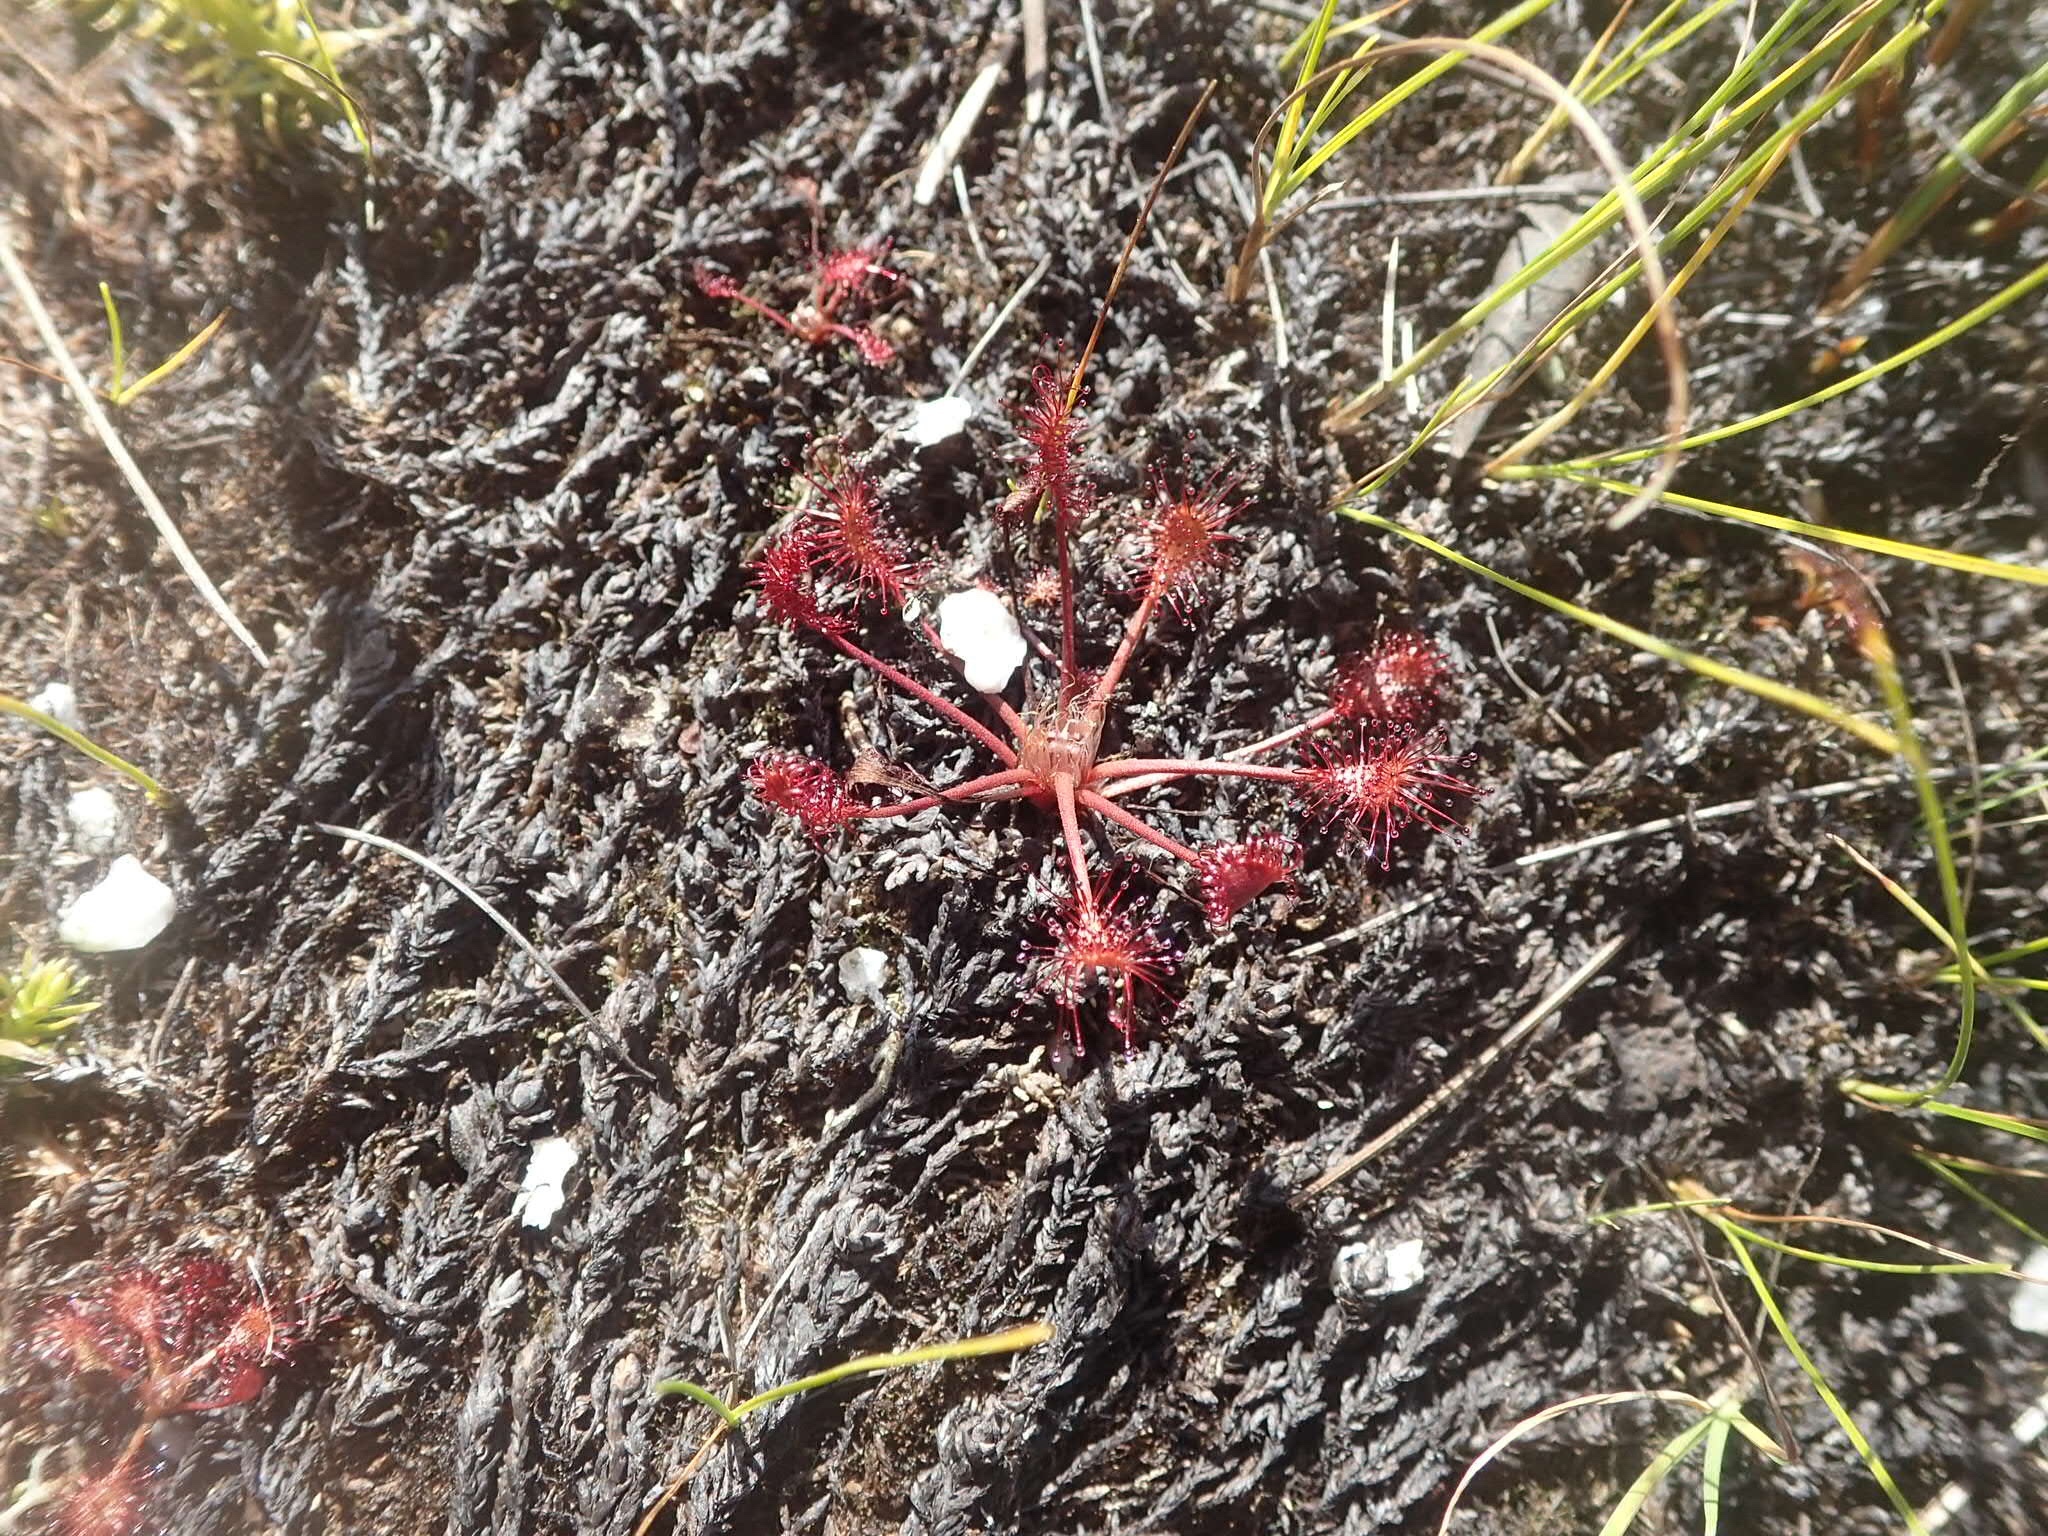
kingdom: Plantae
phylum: Tracheophyta
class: Magnoliopsida
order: Caryophyllales
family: Droseraceae
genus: Drosera
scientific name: Drosera intermedia
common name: Oblong-leaved sundew
